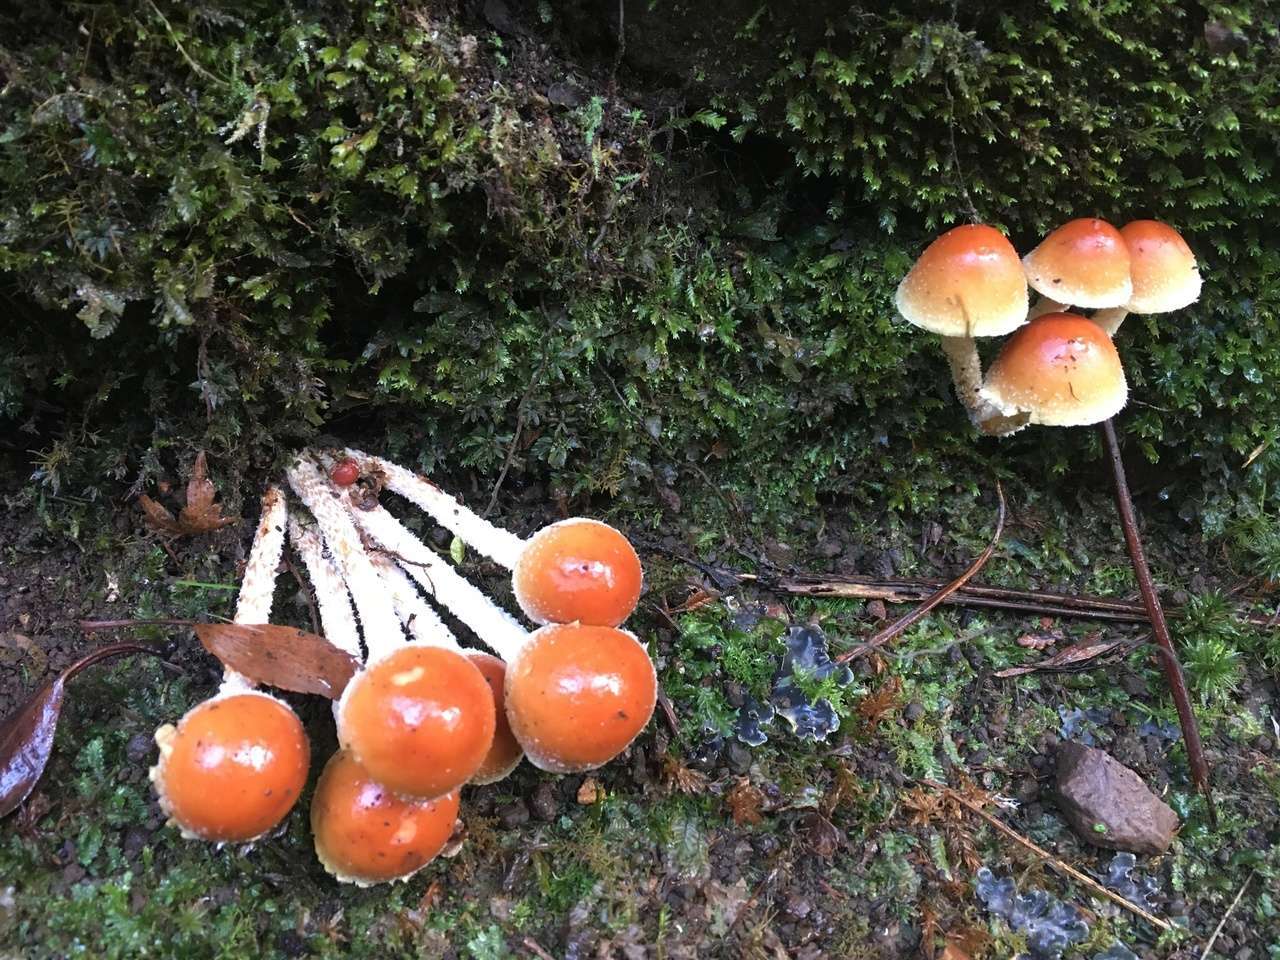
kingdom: Fungi
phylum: Basidiomycota
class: Agaricomycetes
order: Agaricales
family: Strophariaceae
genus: Hypholoma
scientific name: Hypholoma australianum
